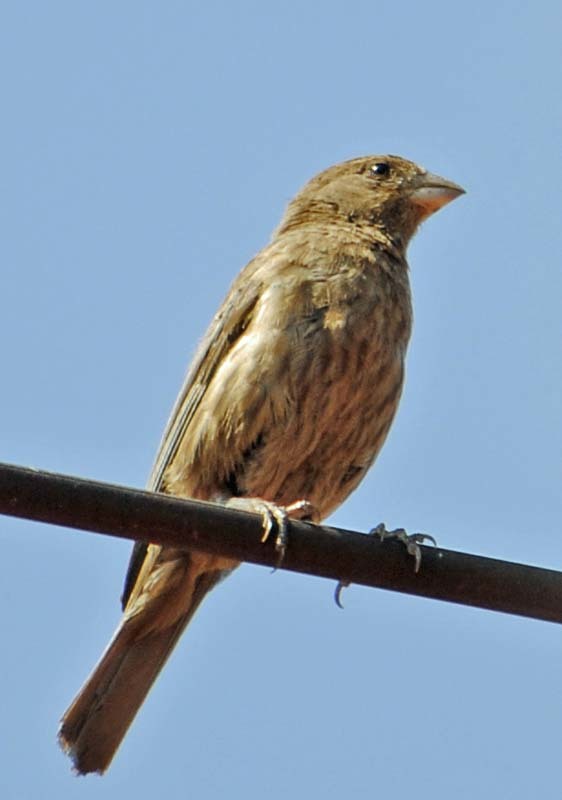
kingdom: Animalia
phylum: Chordata
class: Aves
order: Passeriformes
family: Fringillidae
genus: Haemorhous
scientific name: Haemorhous mexicanus
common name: House finch
